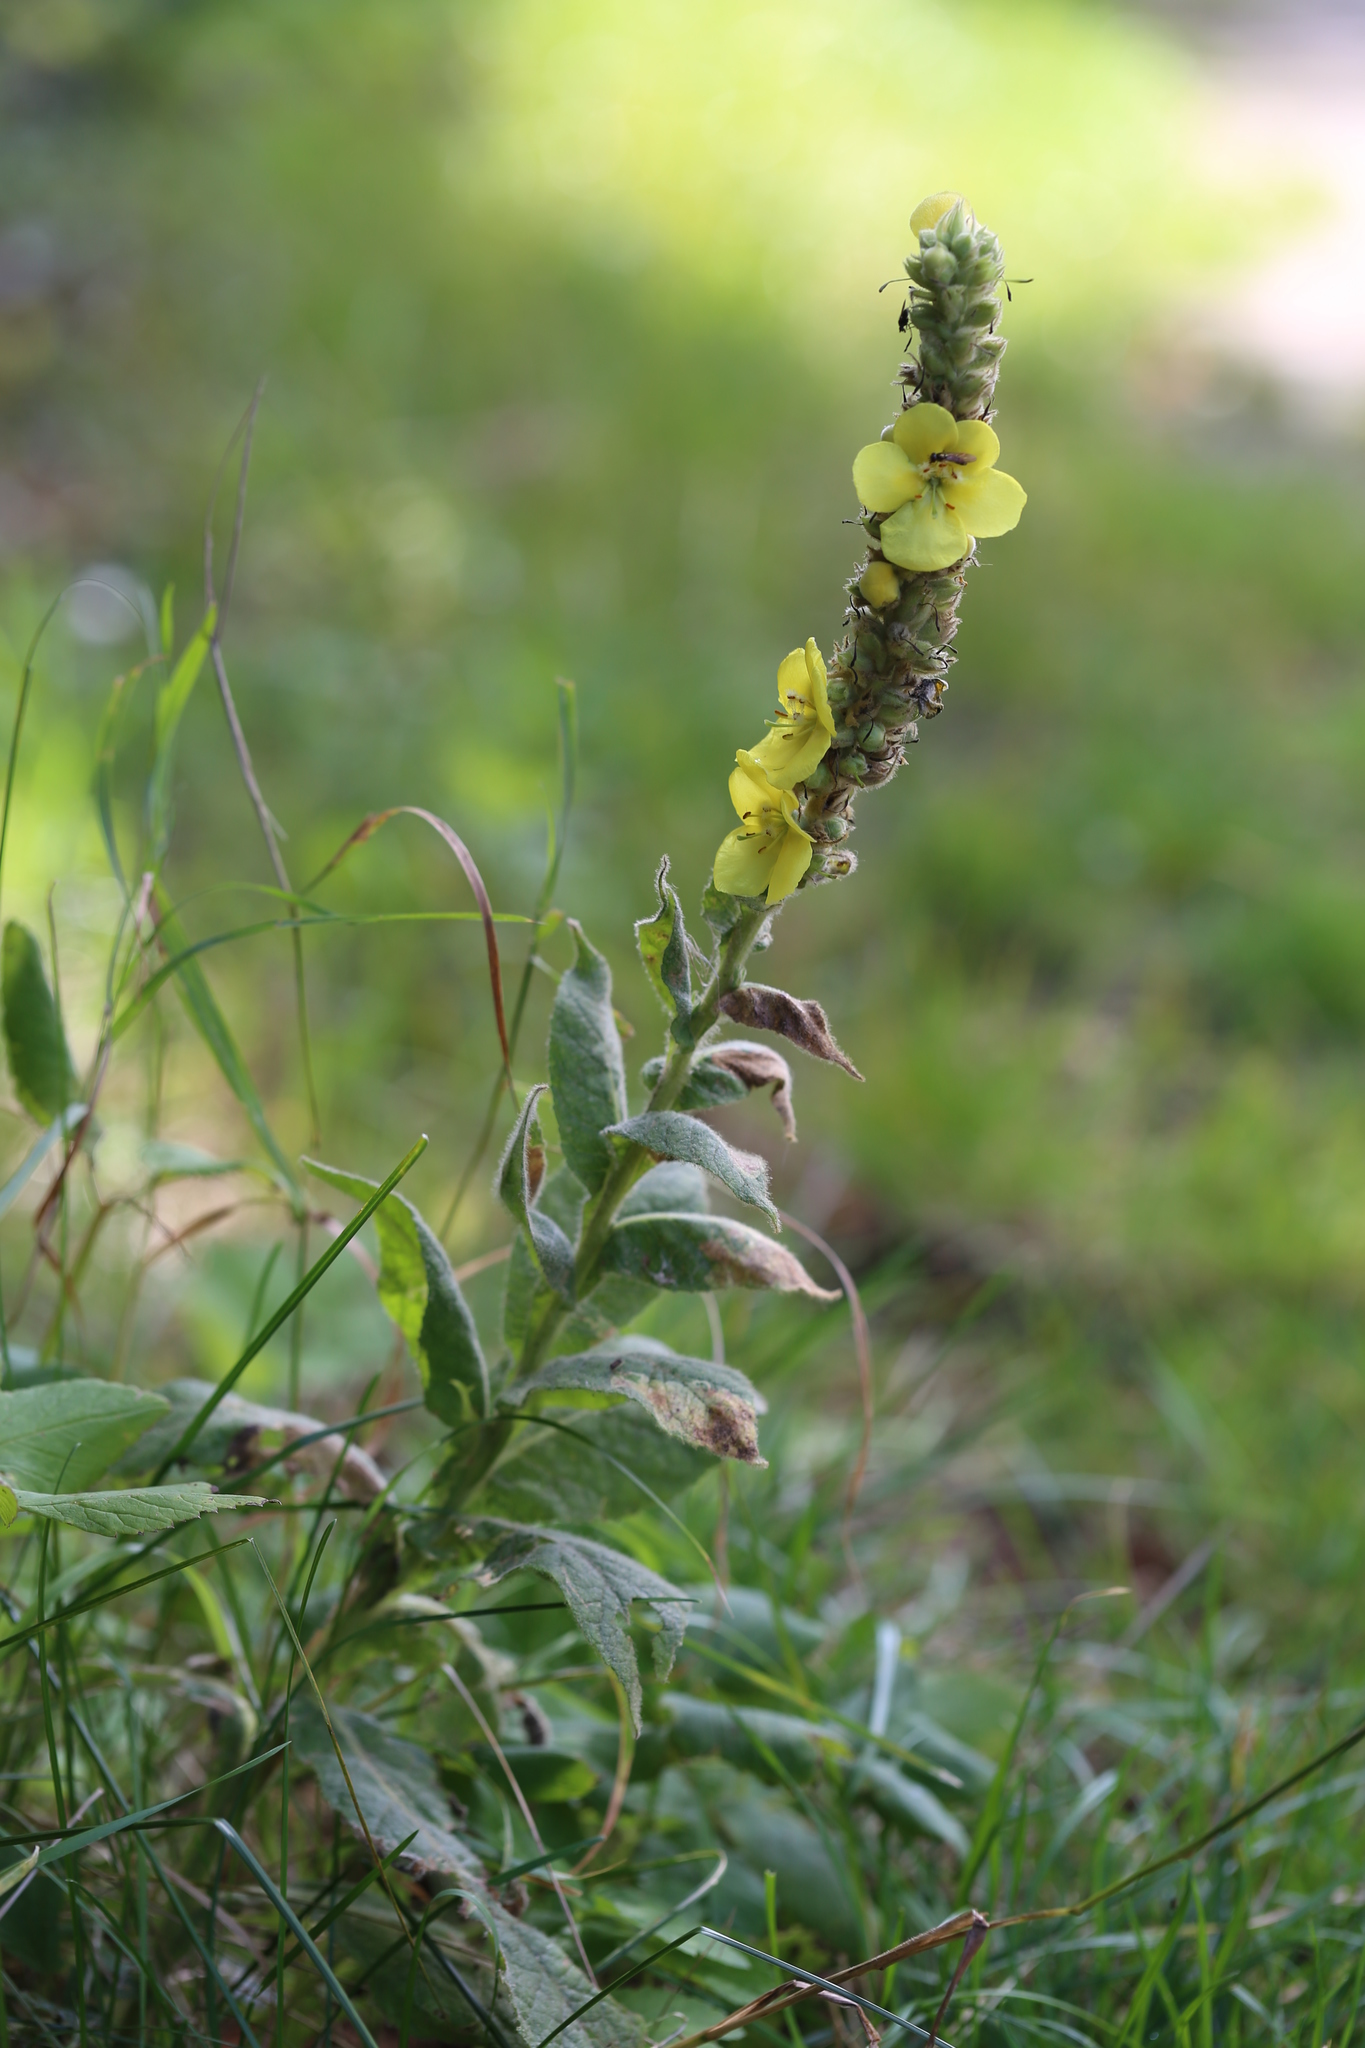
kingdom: Plantae
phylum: Tracheophyta
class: Magnoliopsida
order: Lamiales
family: Scrophulariaceae
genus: Verbascum
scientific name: Verbascum thapsus
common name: Common mullein
